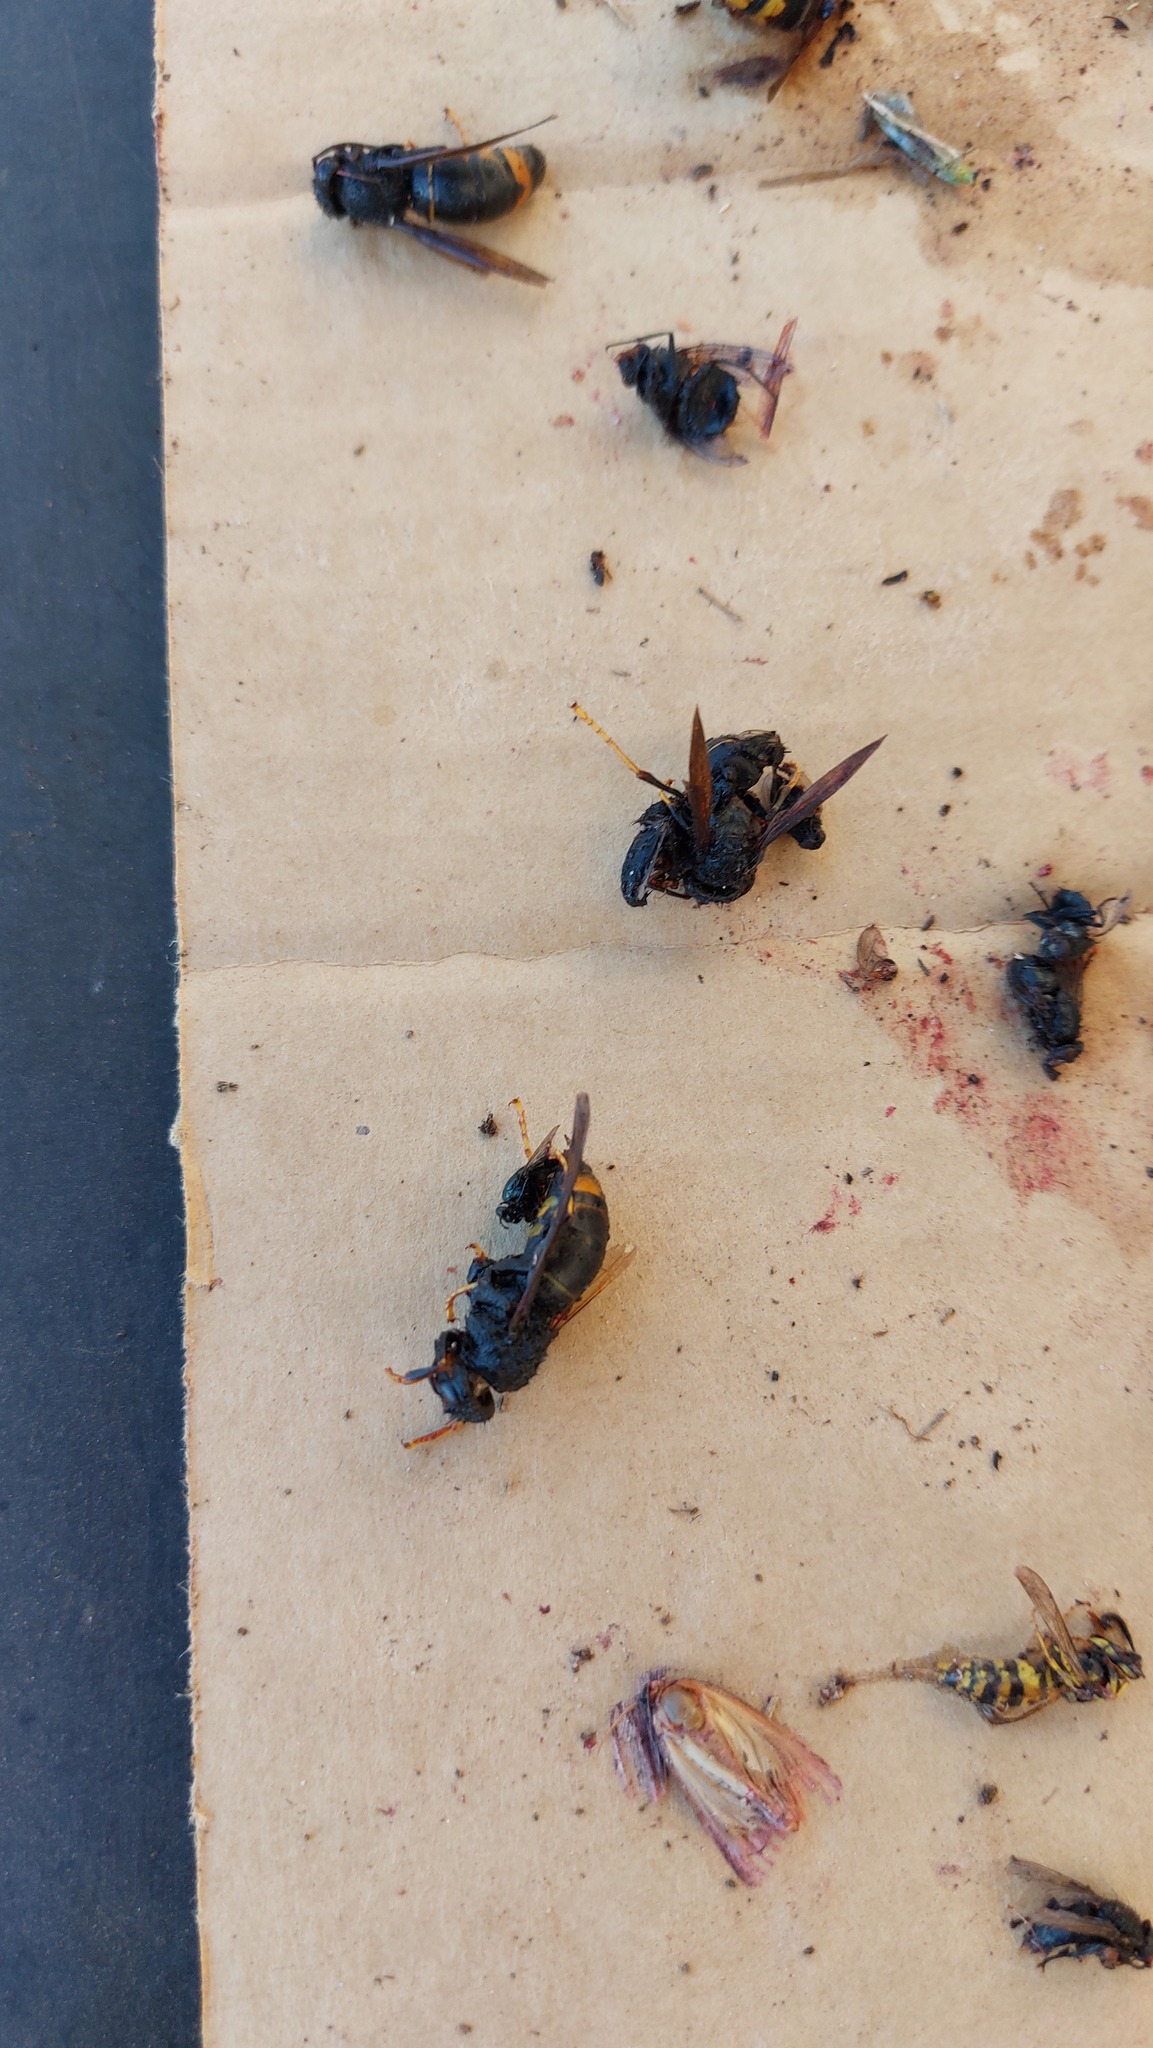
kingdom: Animalia
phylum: Arthropoda
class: Insecta
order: Hymenoptera
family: Vespidae
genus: Vespa
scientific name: Vespa velutina
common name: Asian hornet
